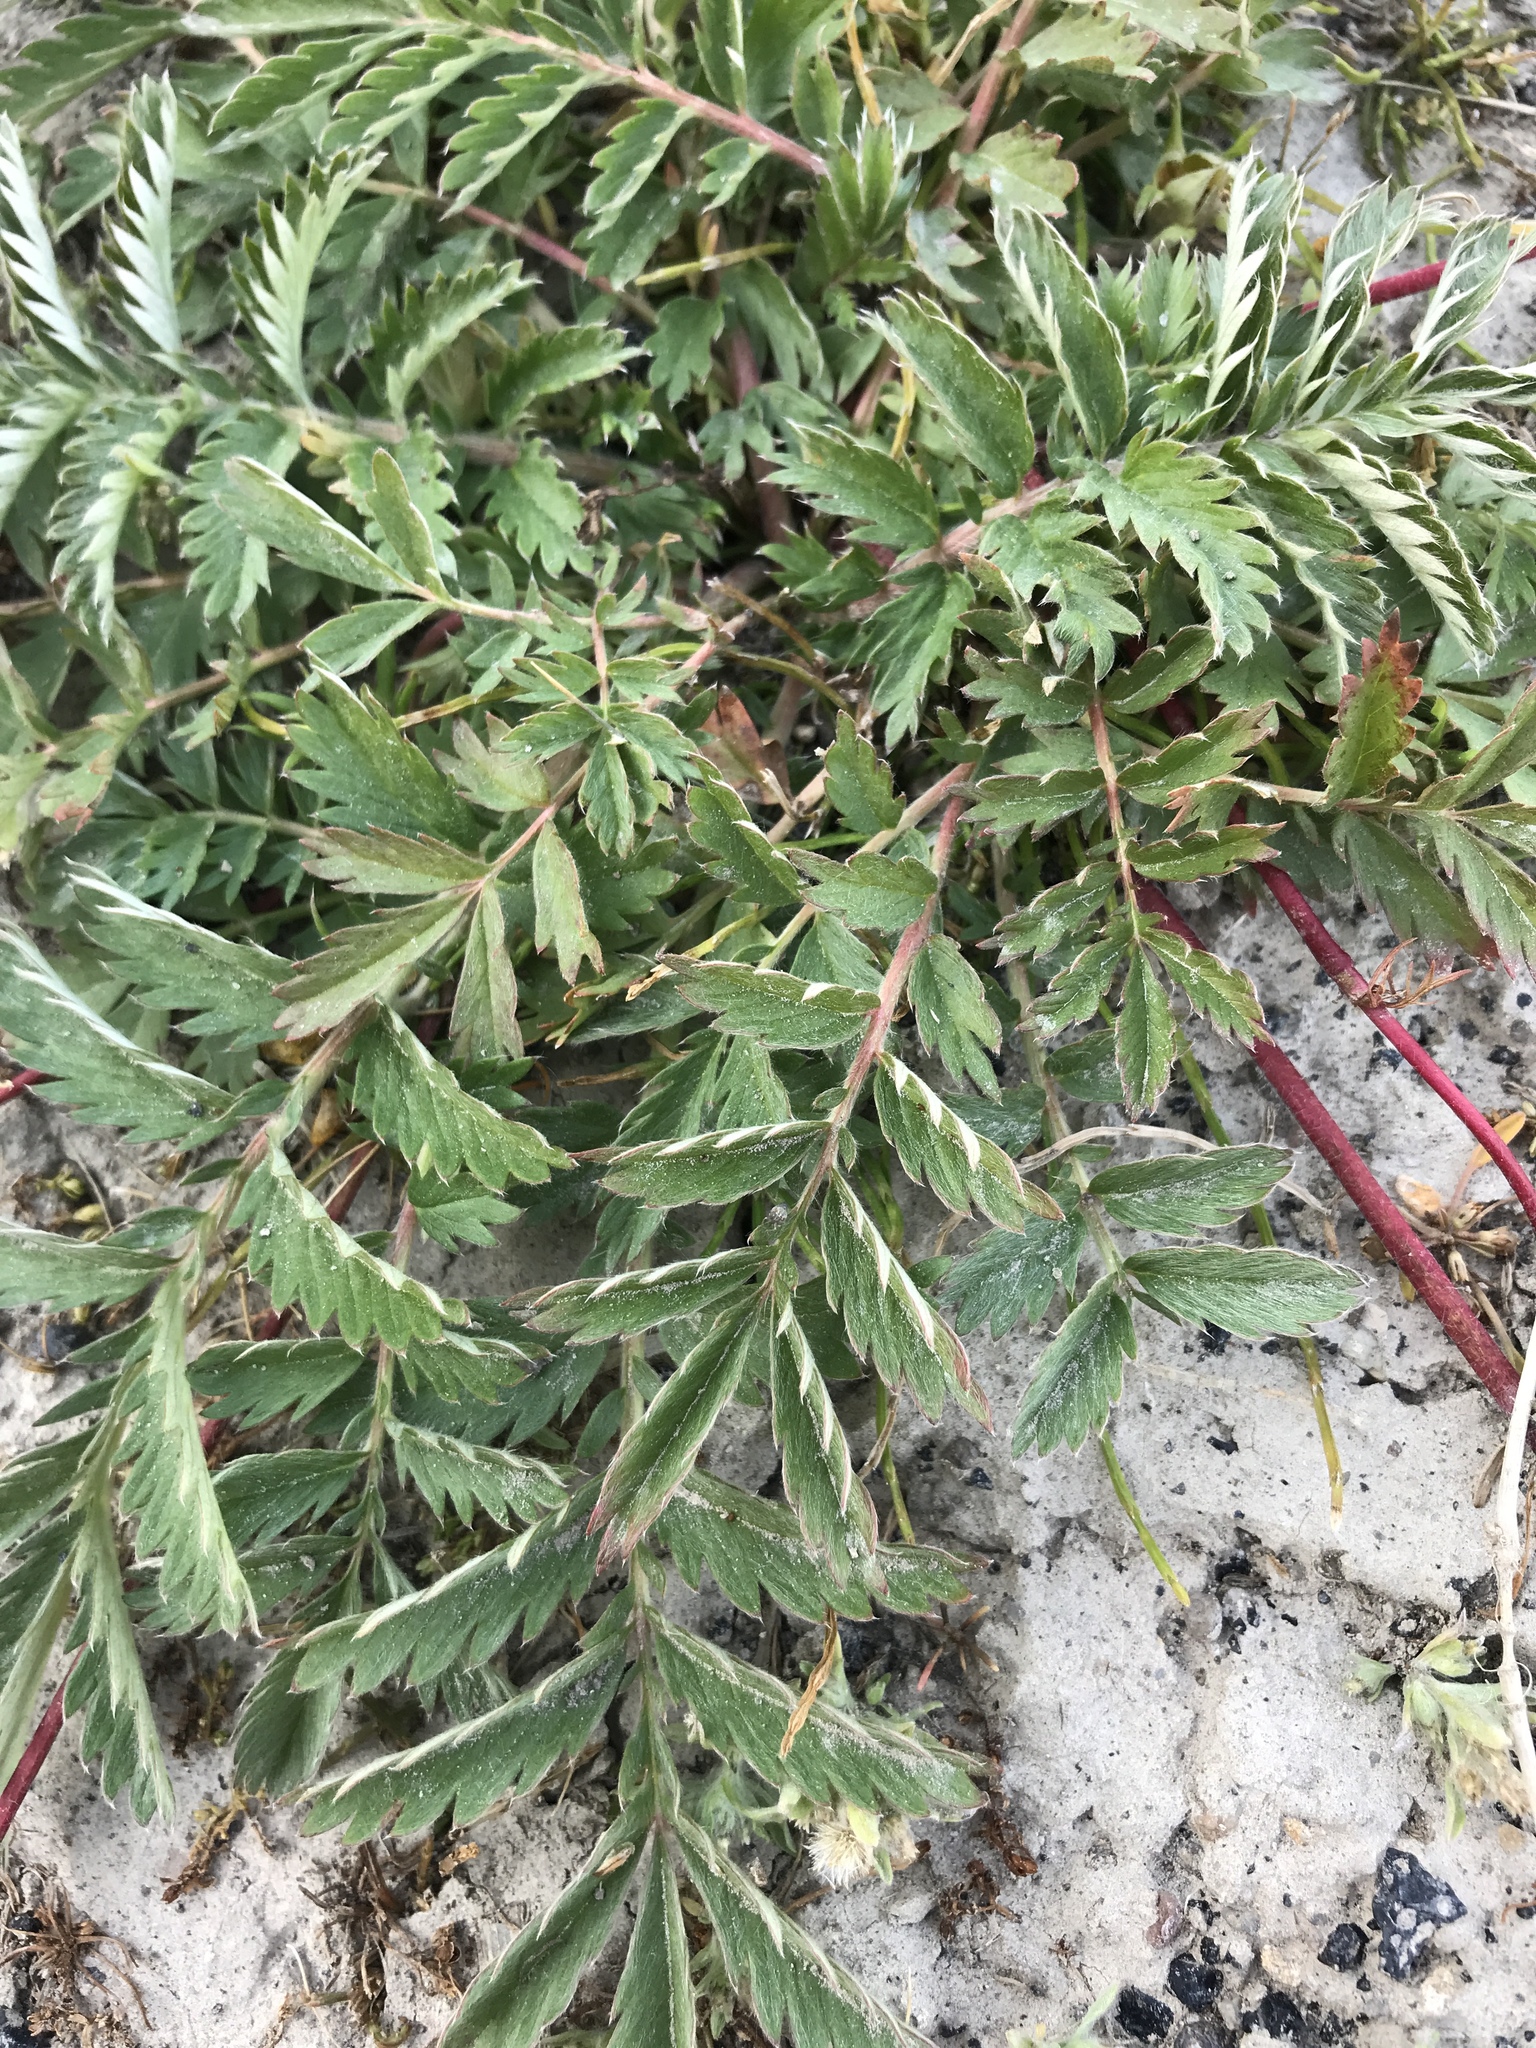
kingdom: Plantae
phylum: Tracheophyta
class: Magnoliopsida
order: Rosales
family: Rosaceae
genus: Argentina
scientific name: Argentina anserina
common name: Common silverweed
